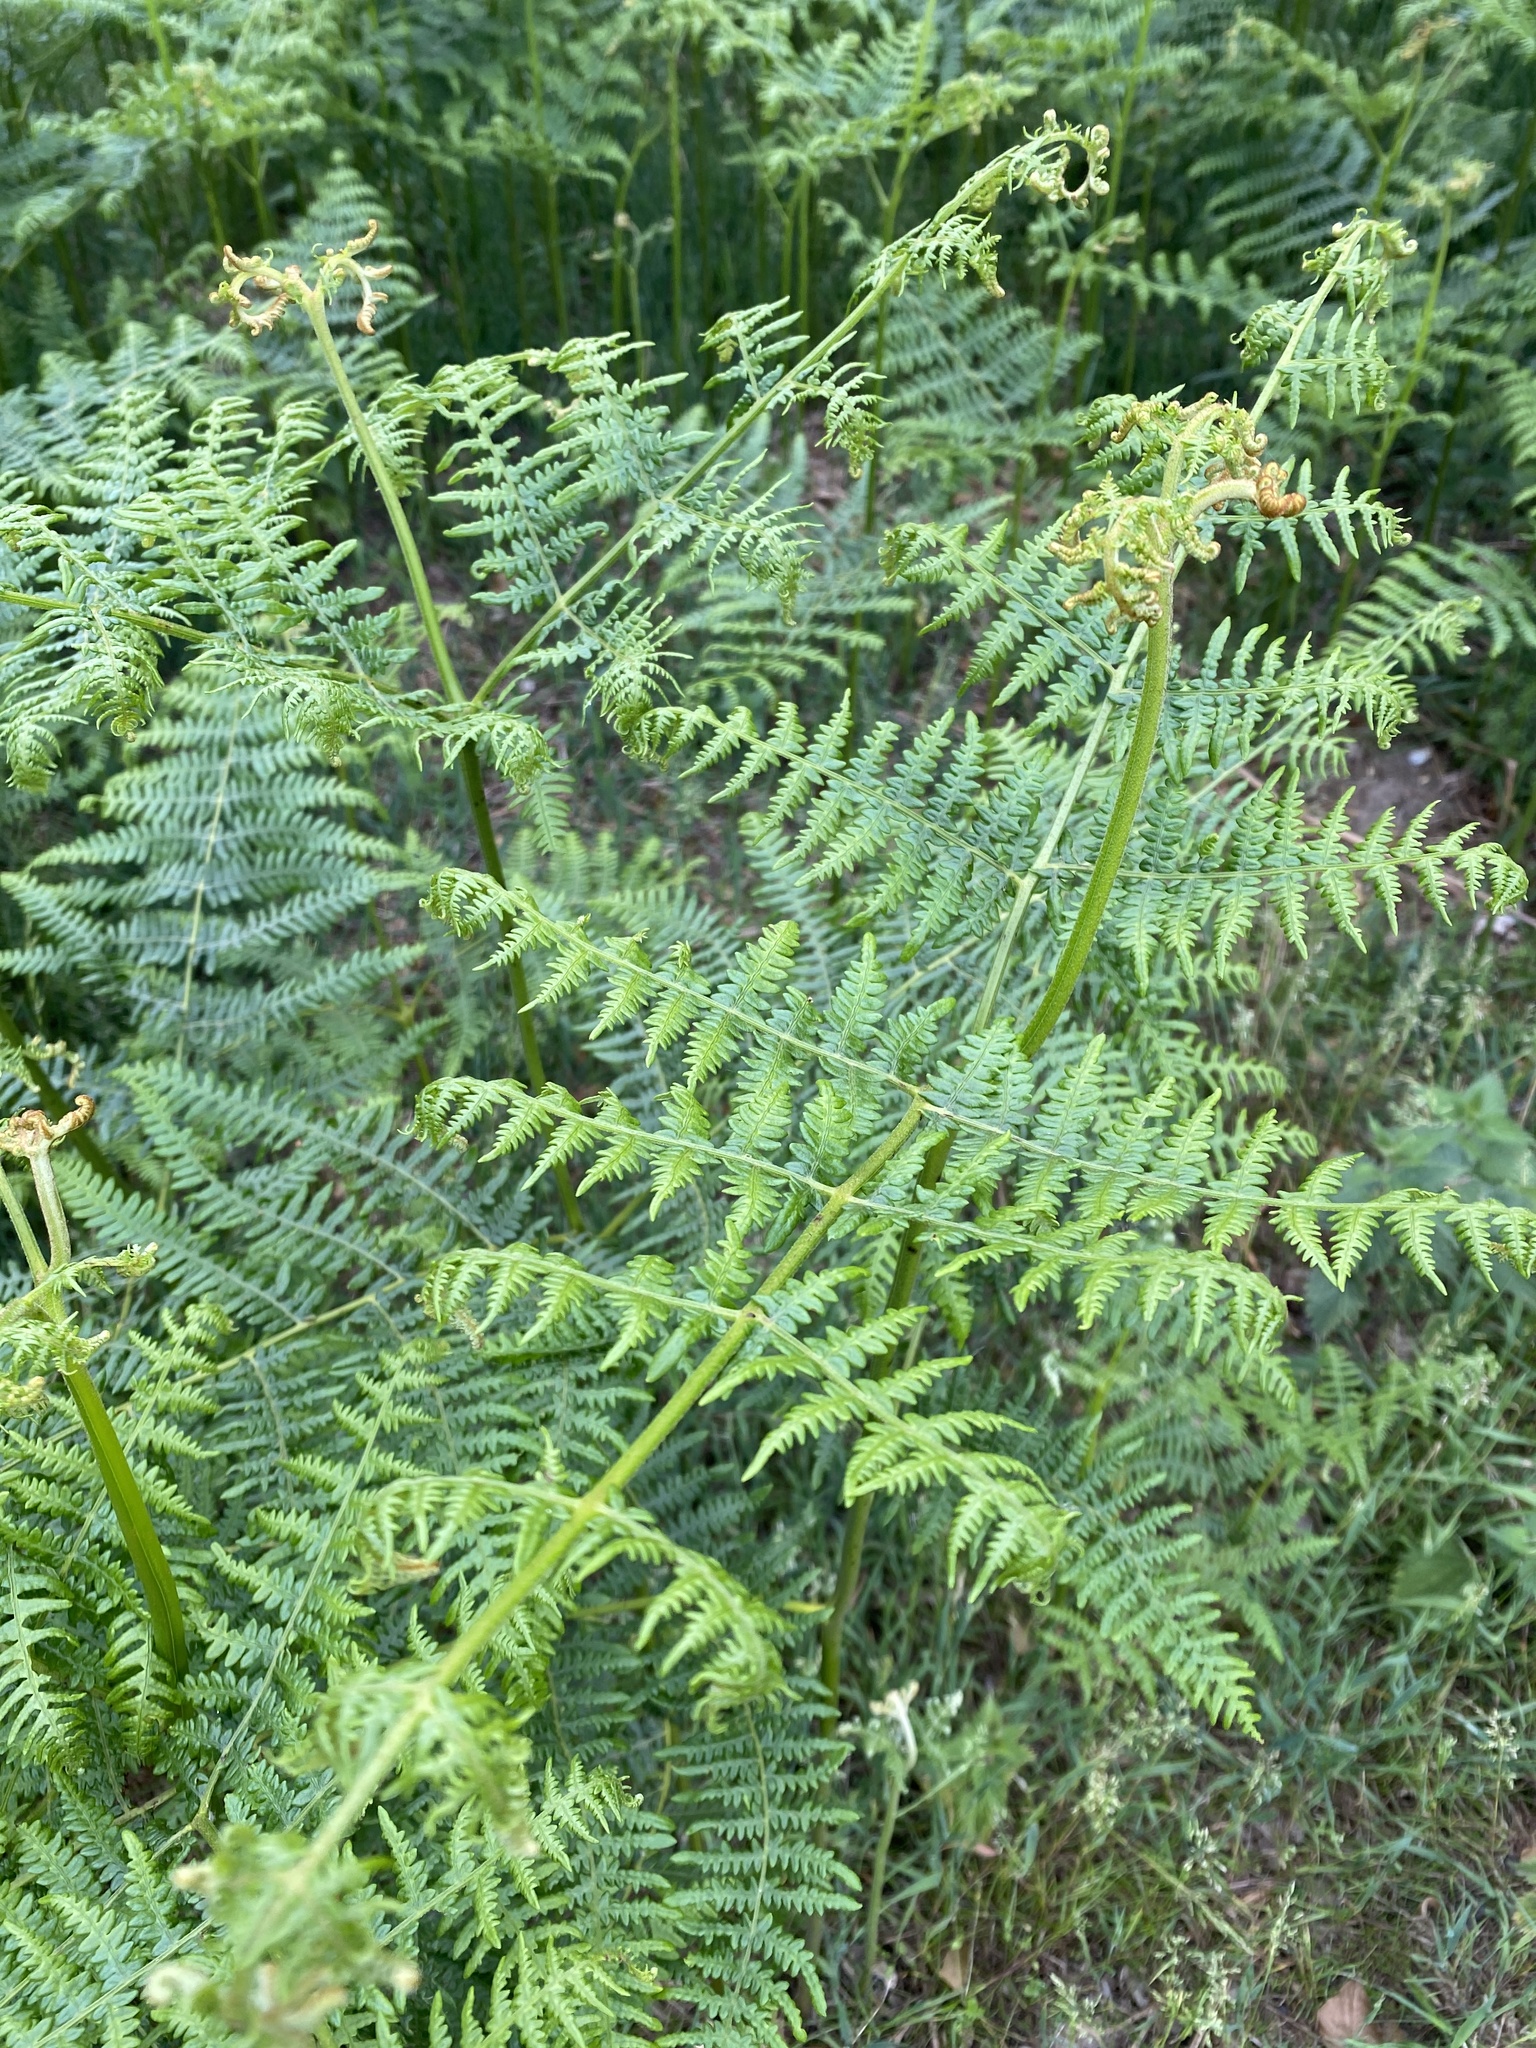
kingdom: Plantae
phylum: Tracheophyta
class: Polypodiopsida
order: Polypodiales
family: Dennstaedtiaceae
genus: Pteridium
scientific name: Pteridium aquilinum
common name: Bracken
